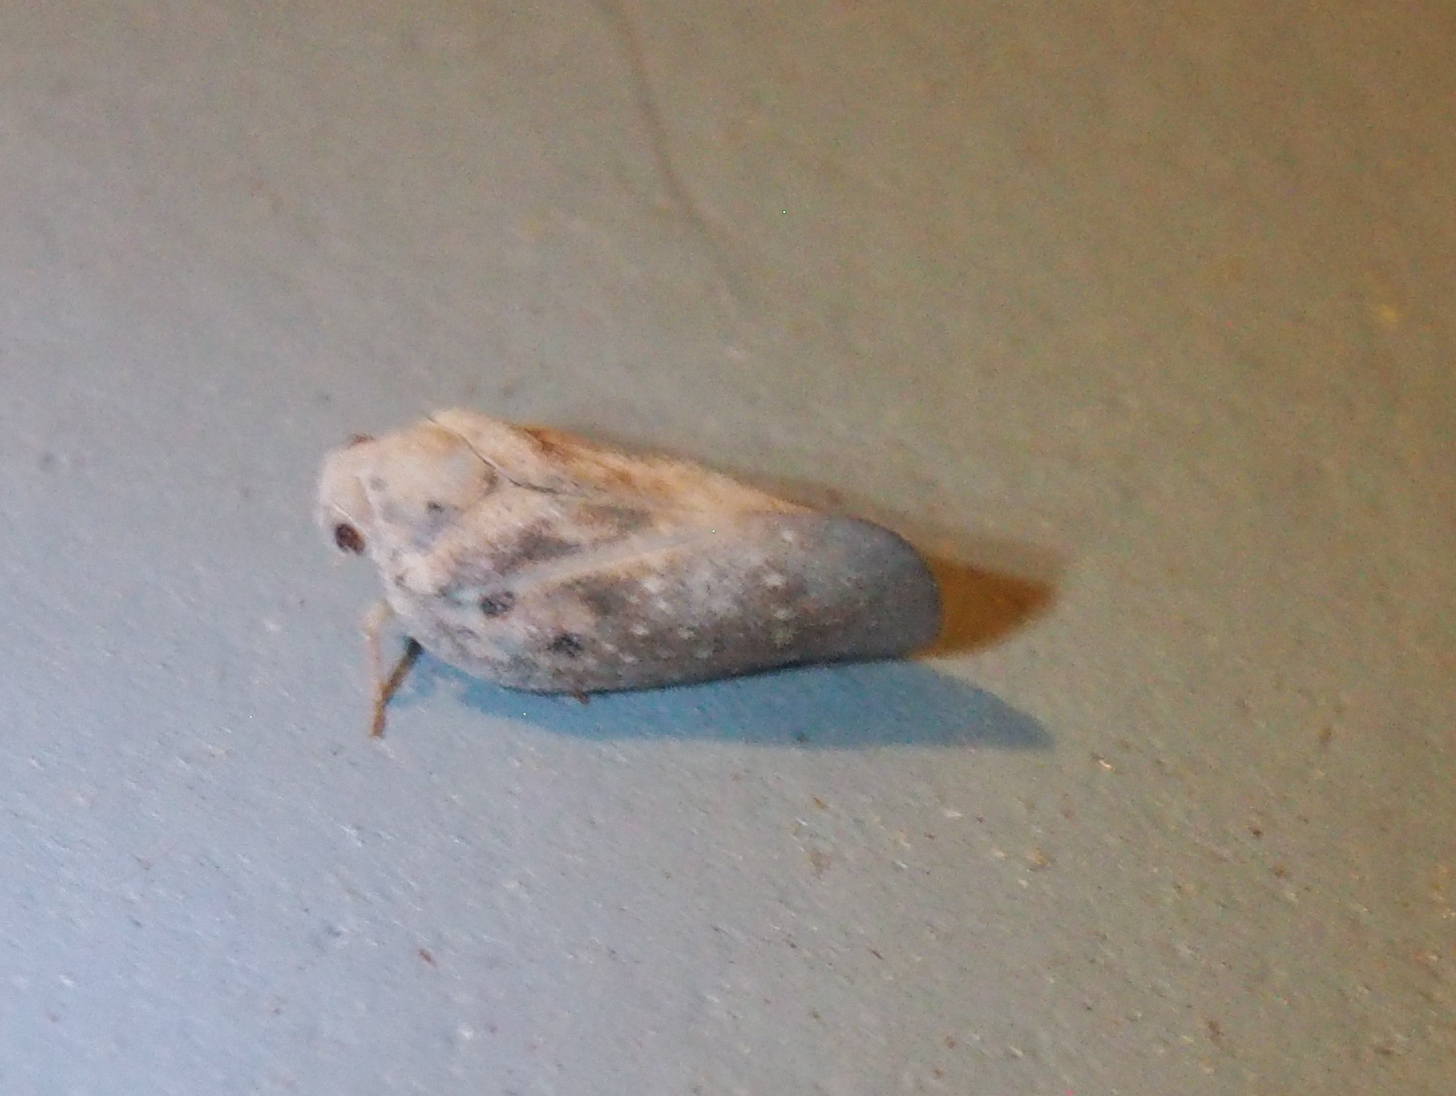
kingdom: Animalia
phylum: Arthropoda
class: Insecta
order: Hemiptera
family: Flatidae
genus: Metcalfa
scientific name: Metcalfa pruinosa
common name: Citrus flatid planthopper
